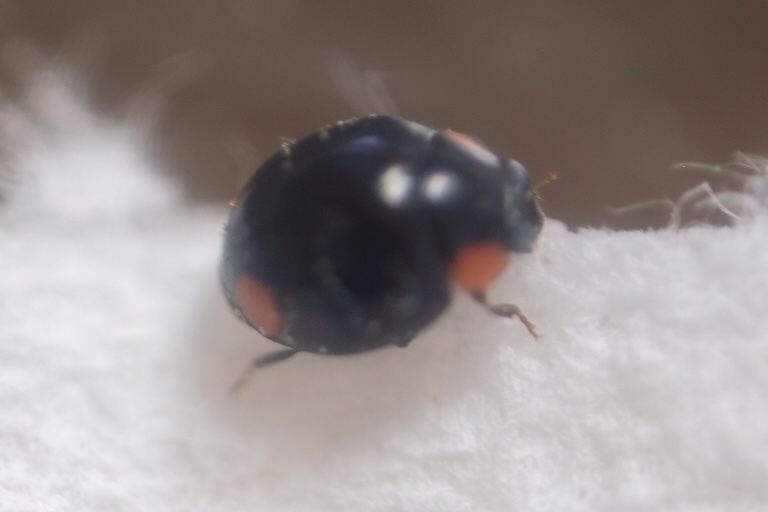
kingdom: Animalia
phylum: Arthropoda
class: Insecta
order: Coleoptera
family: Coccinellidae
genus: Hyperaspis
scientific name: Hyperaspis bigeminata
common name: Bigeminate sigil lady beetle
